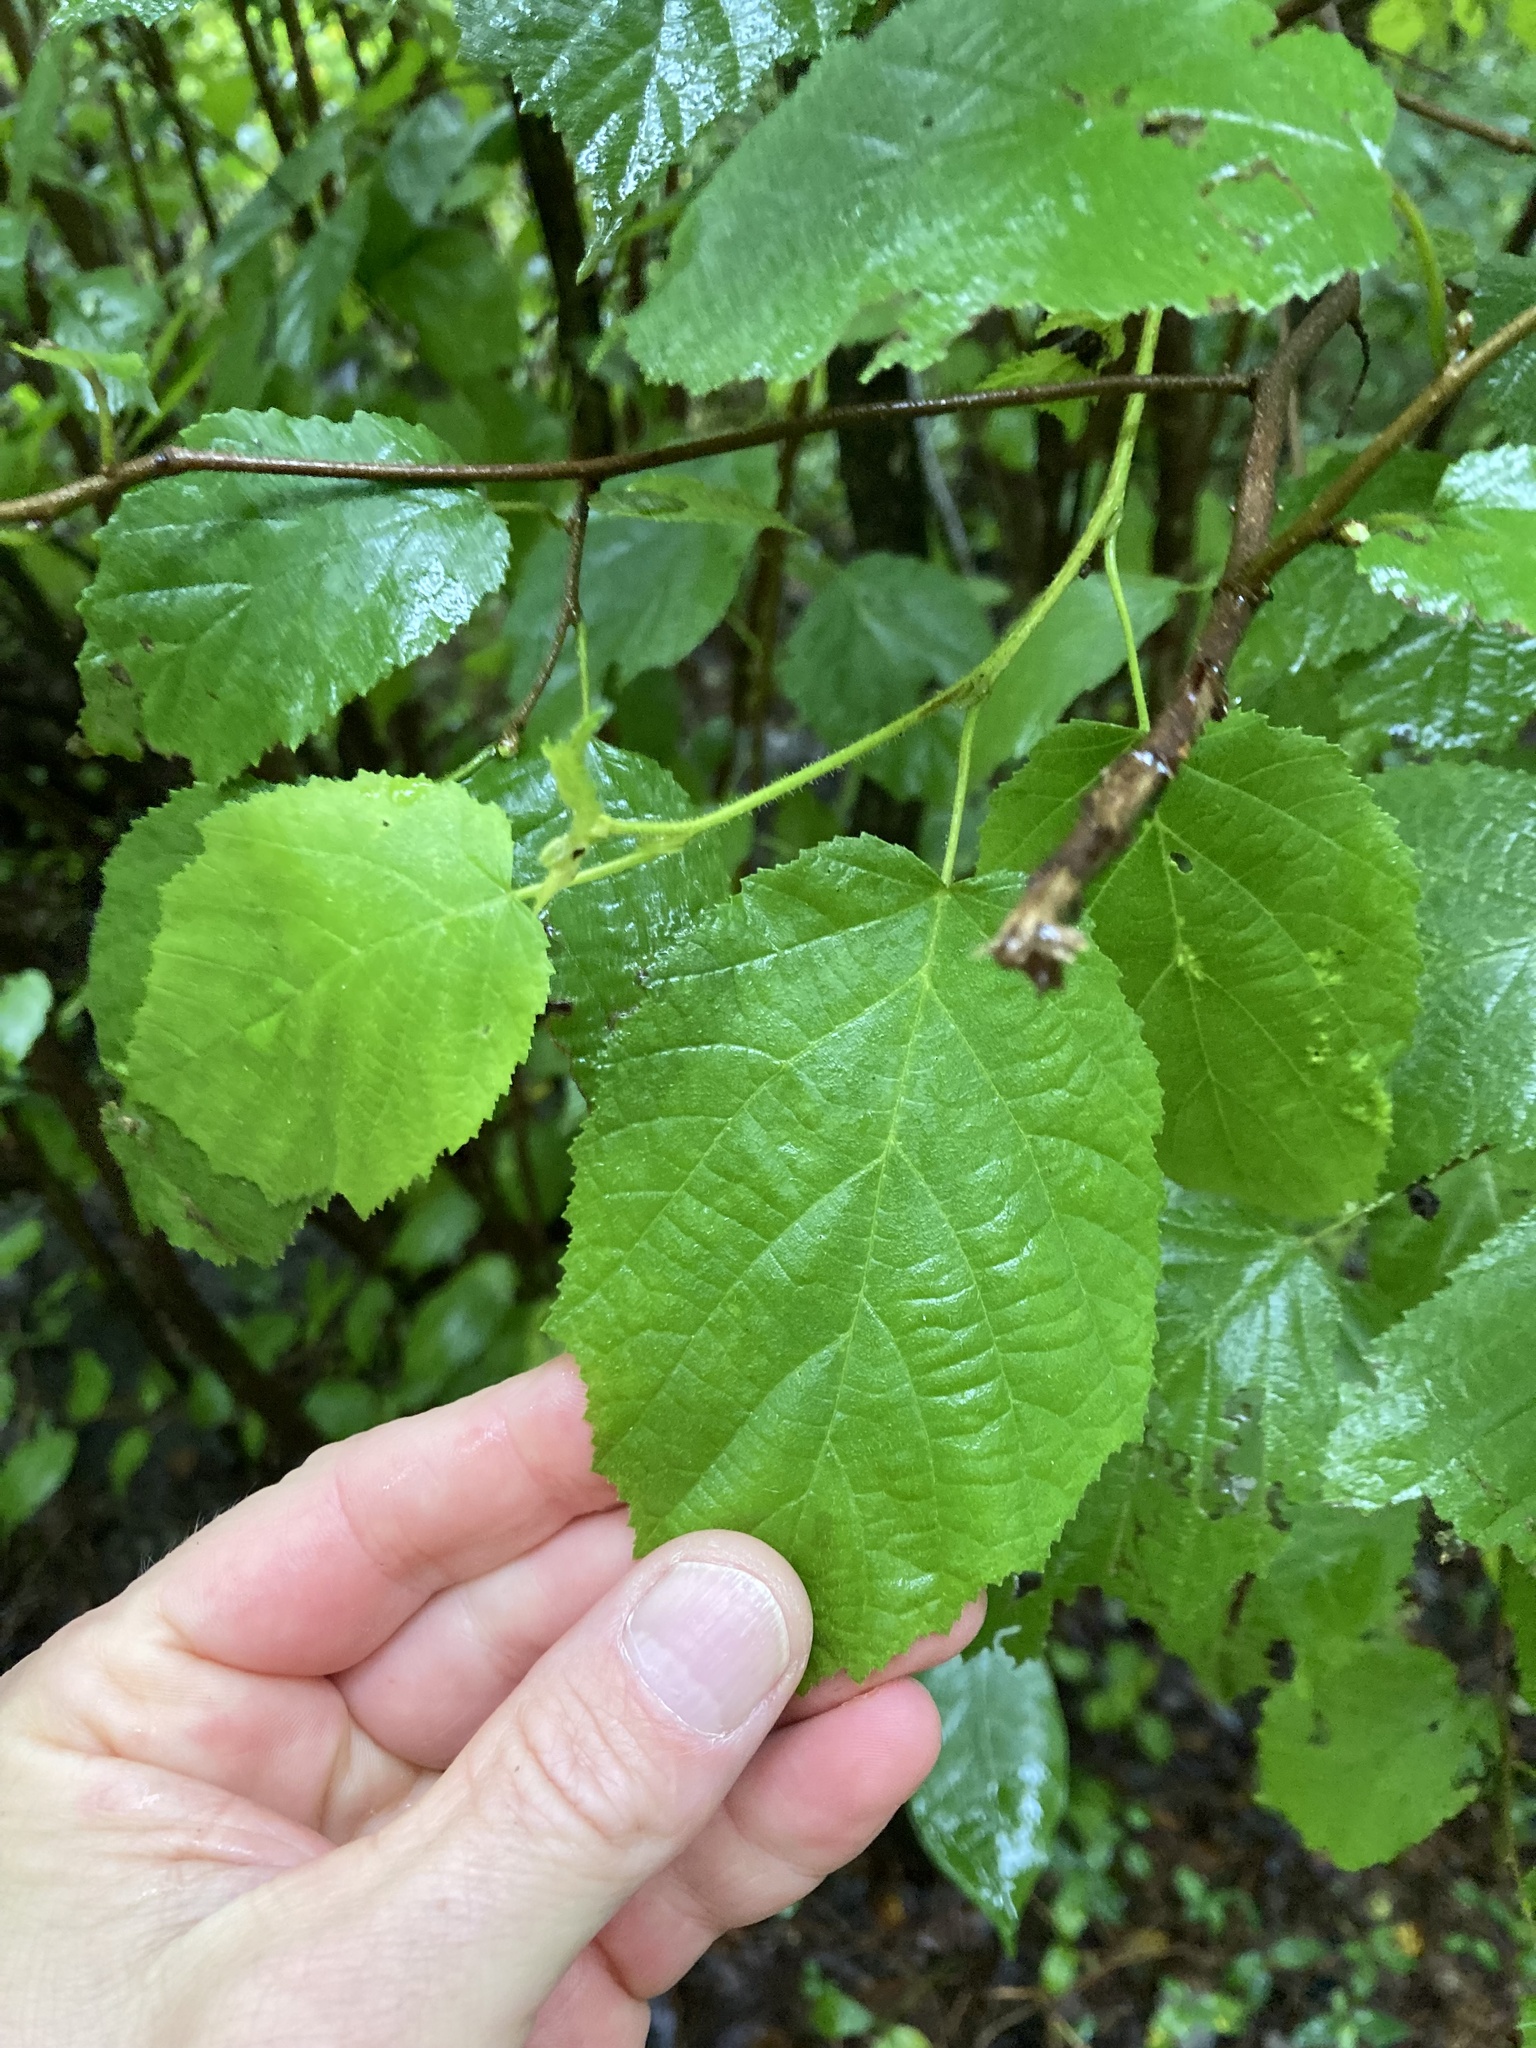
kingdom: Plantae
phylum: Tracheophyta
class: Magnoliopsida
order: Fagales
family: Betulaceae
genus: Corylus
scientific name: Corylus americana
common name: American hazel
